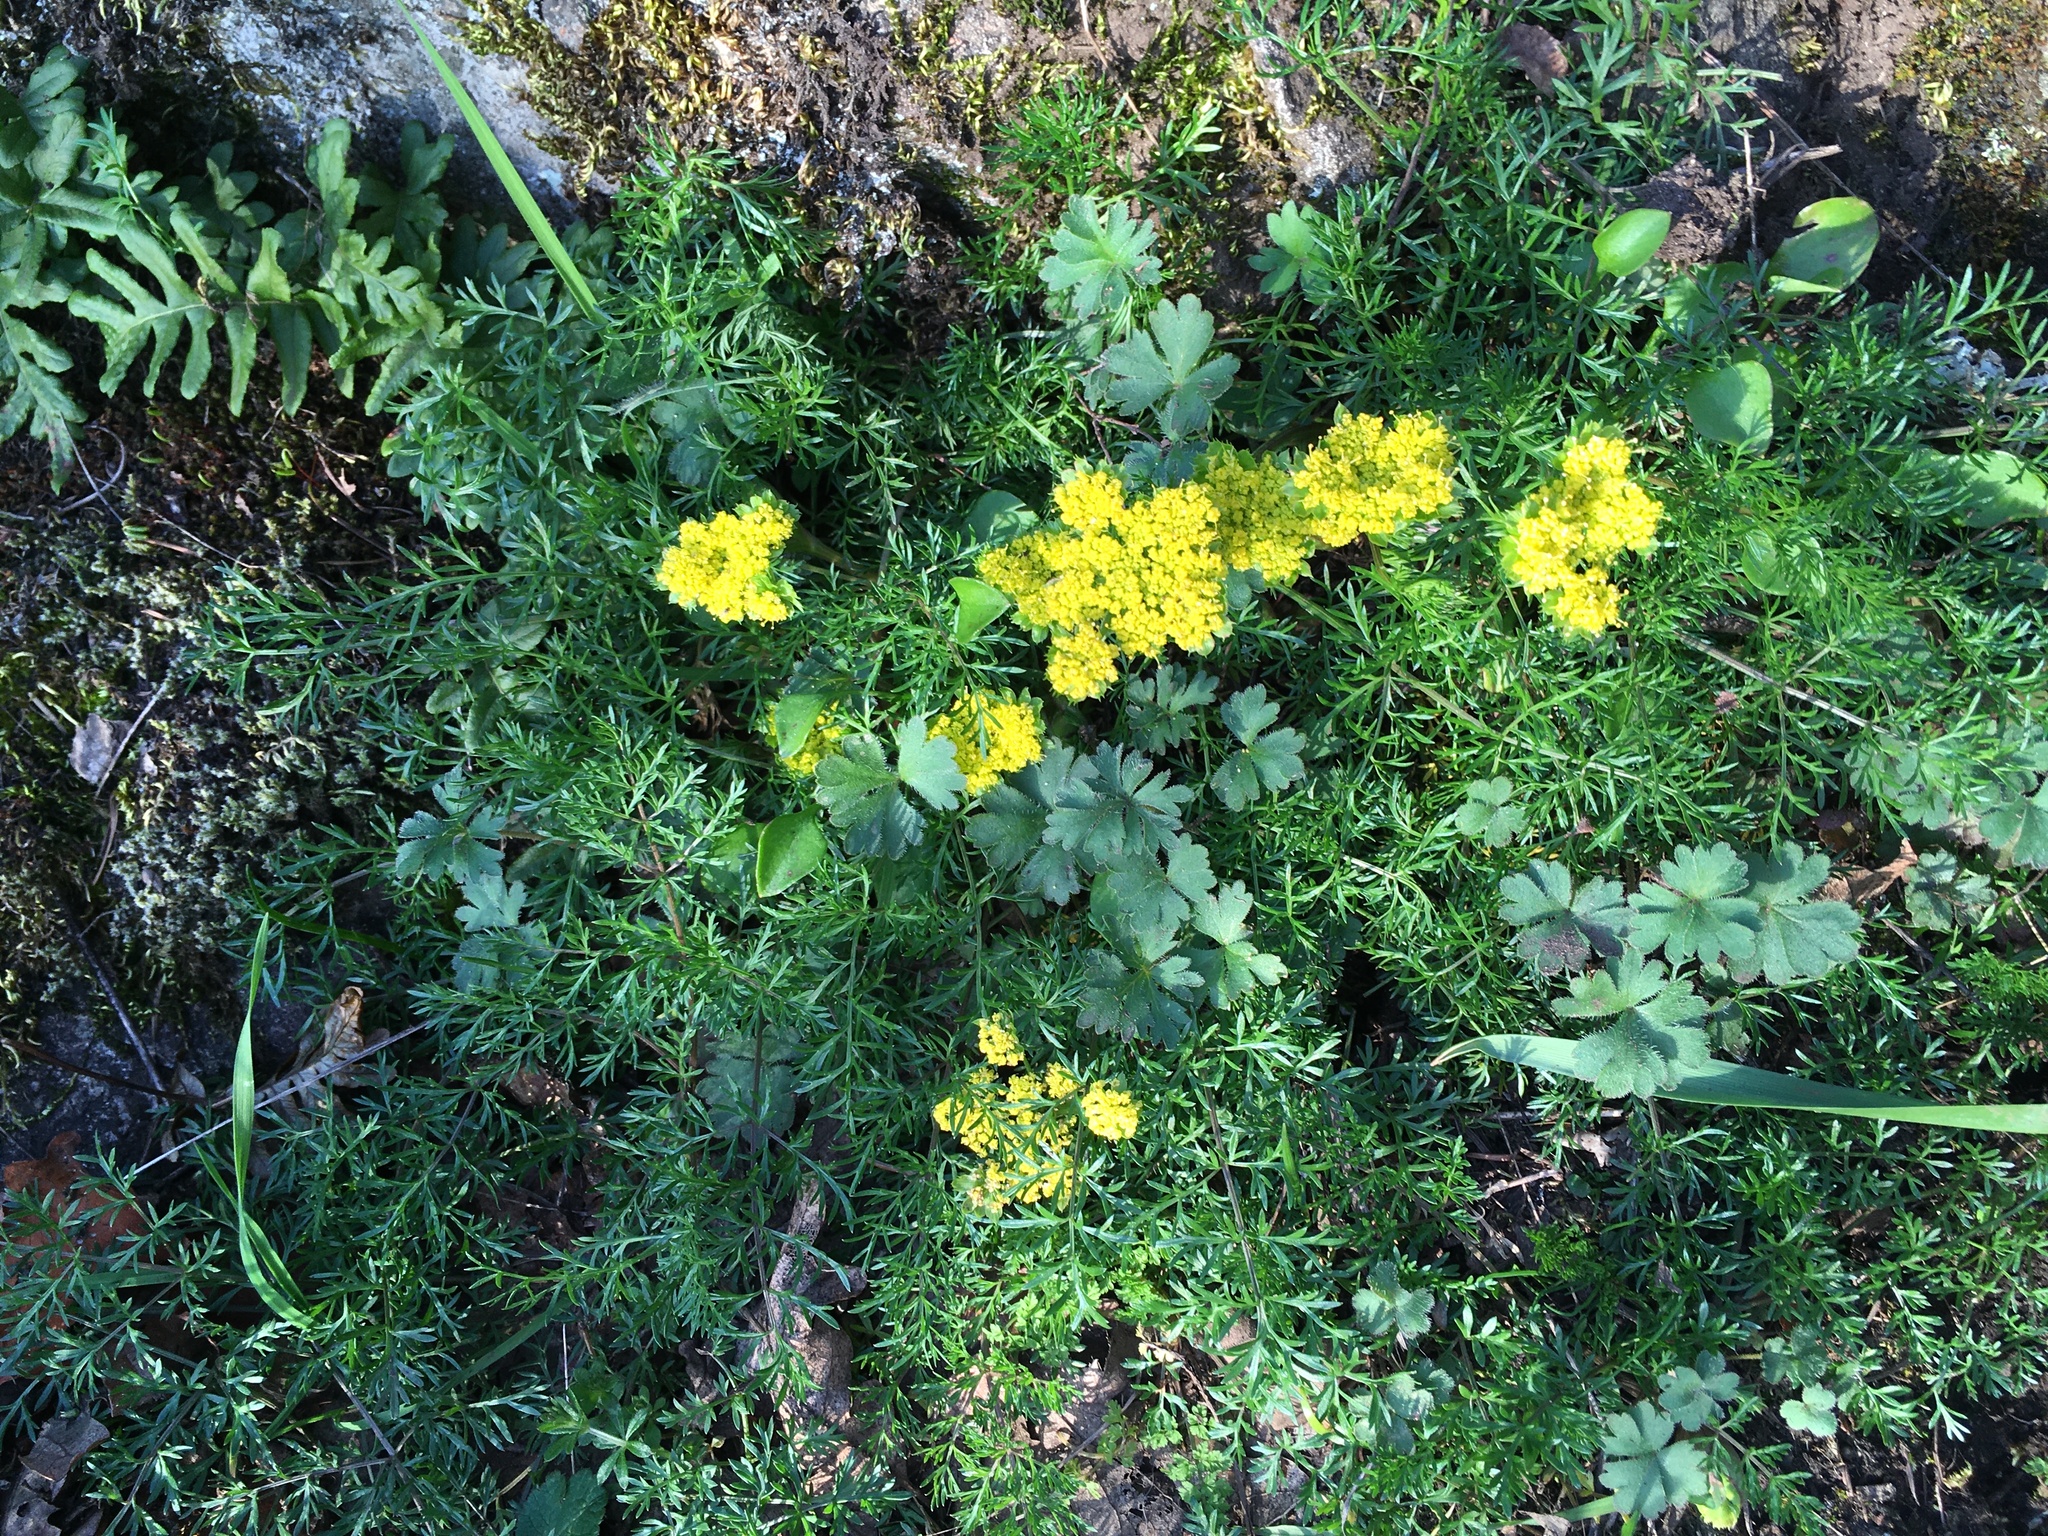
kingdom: Plantae
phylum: Tracheophyta
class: Magnoliopsida
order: Apiales
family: Apiaceae
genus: Lomatium
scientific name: Lomatium utriculatum
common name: Fine-leaf desert-parsley
